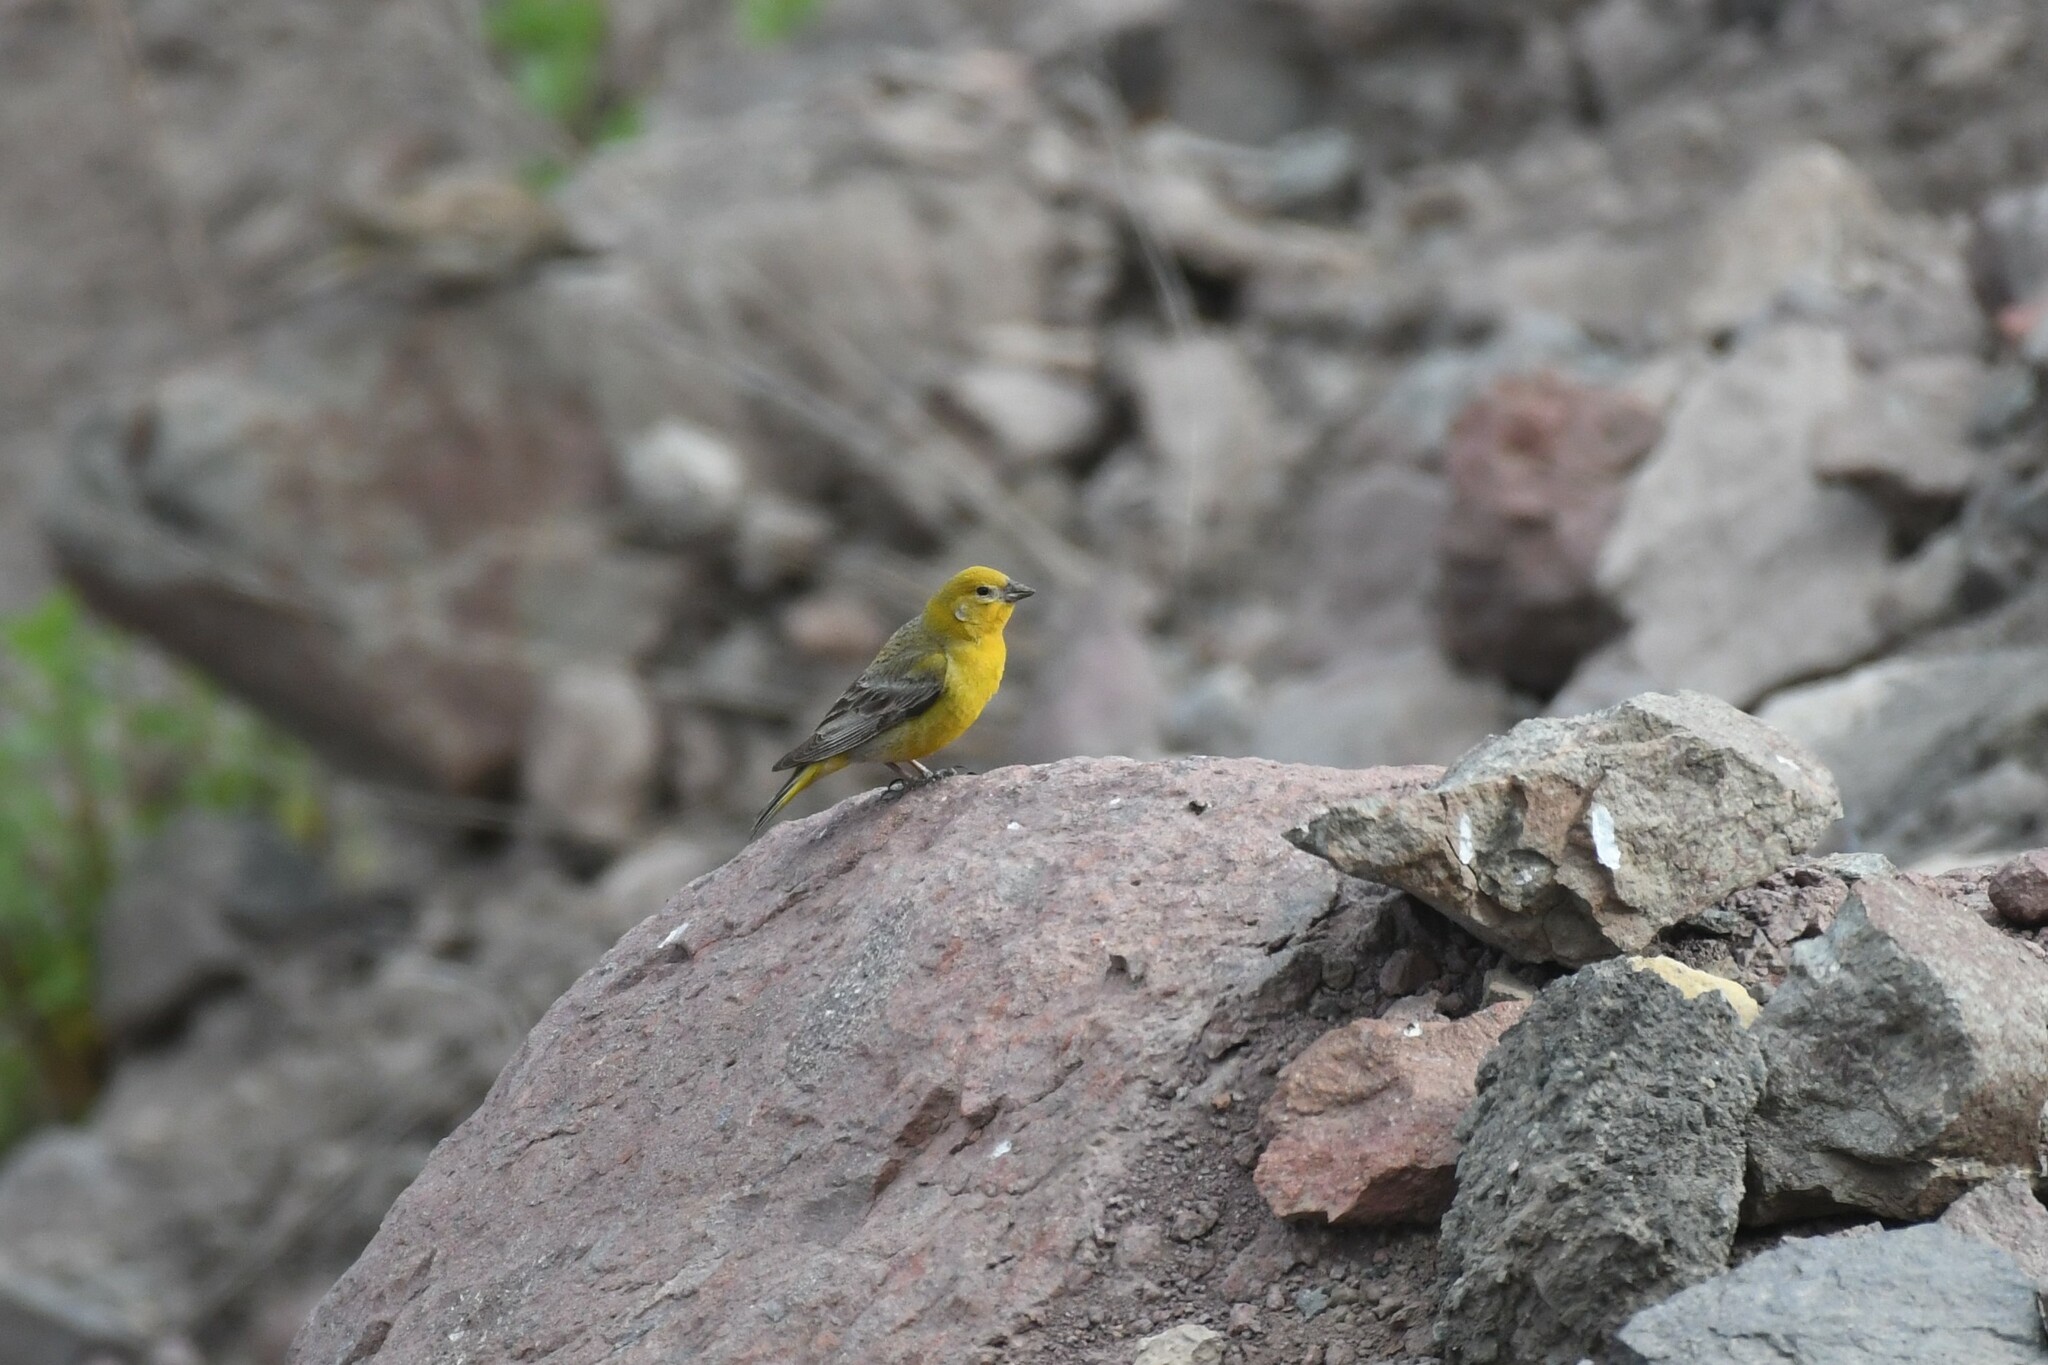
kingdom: Animalia
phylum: Chordata
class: Aves
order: Passeriformes
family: Thraupidae
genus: Sicalis
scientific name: Sicalis auriventris
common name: Greater yellow finch
